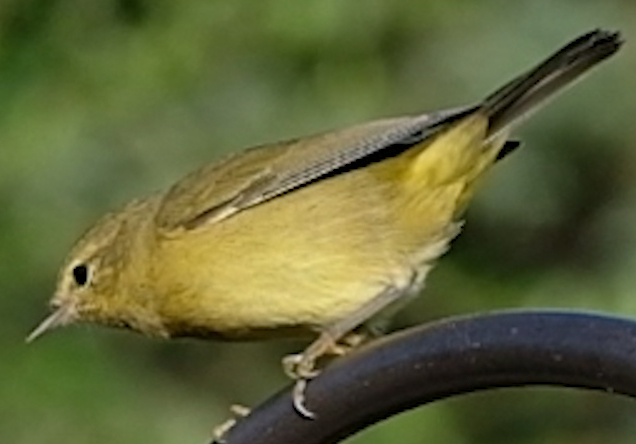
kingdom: Animalia
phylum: Chordata
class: Aves
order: Passeriformes
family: Parulidae
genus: Leiothlypis
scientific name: Leiothlypis celata
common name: Orange-crowned warbler
